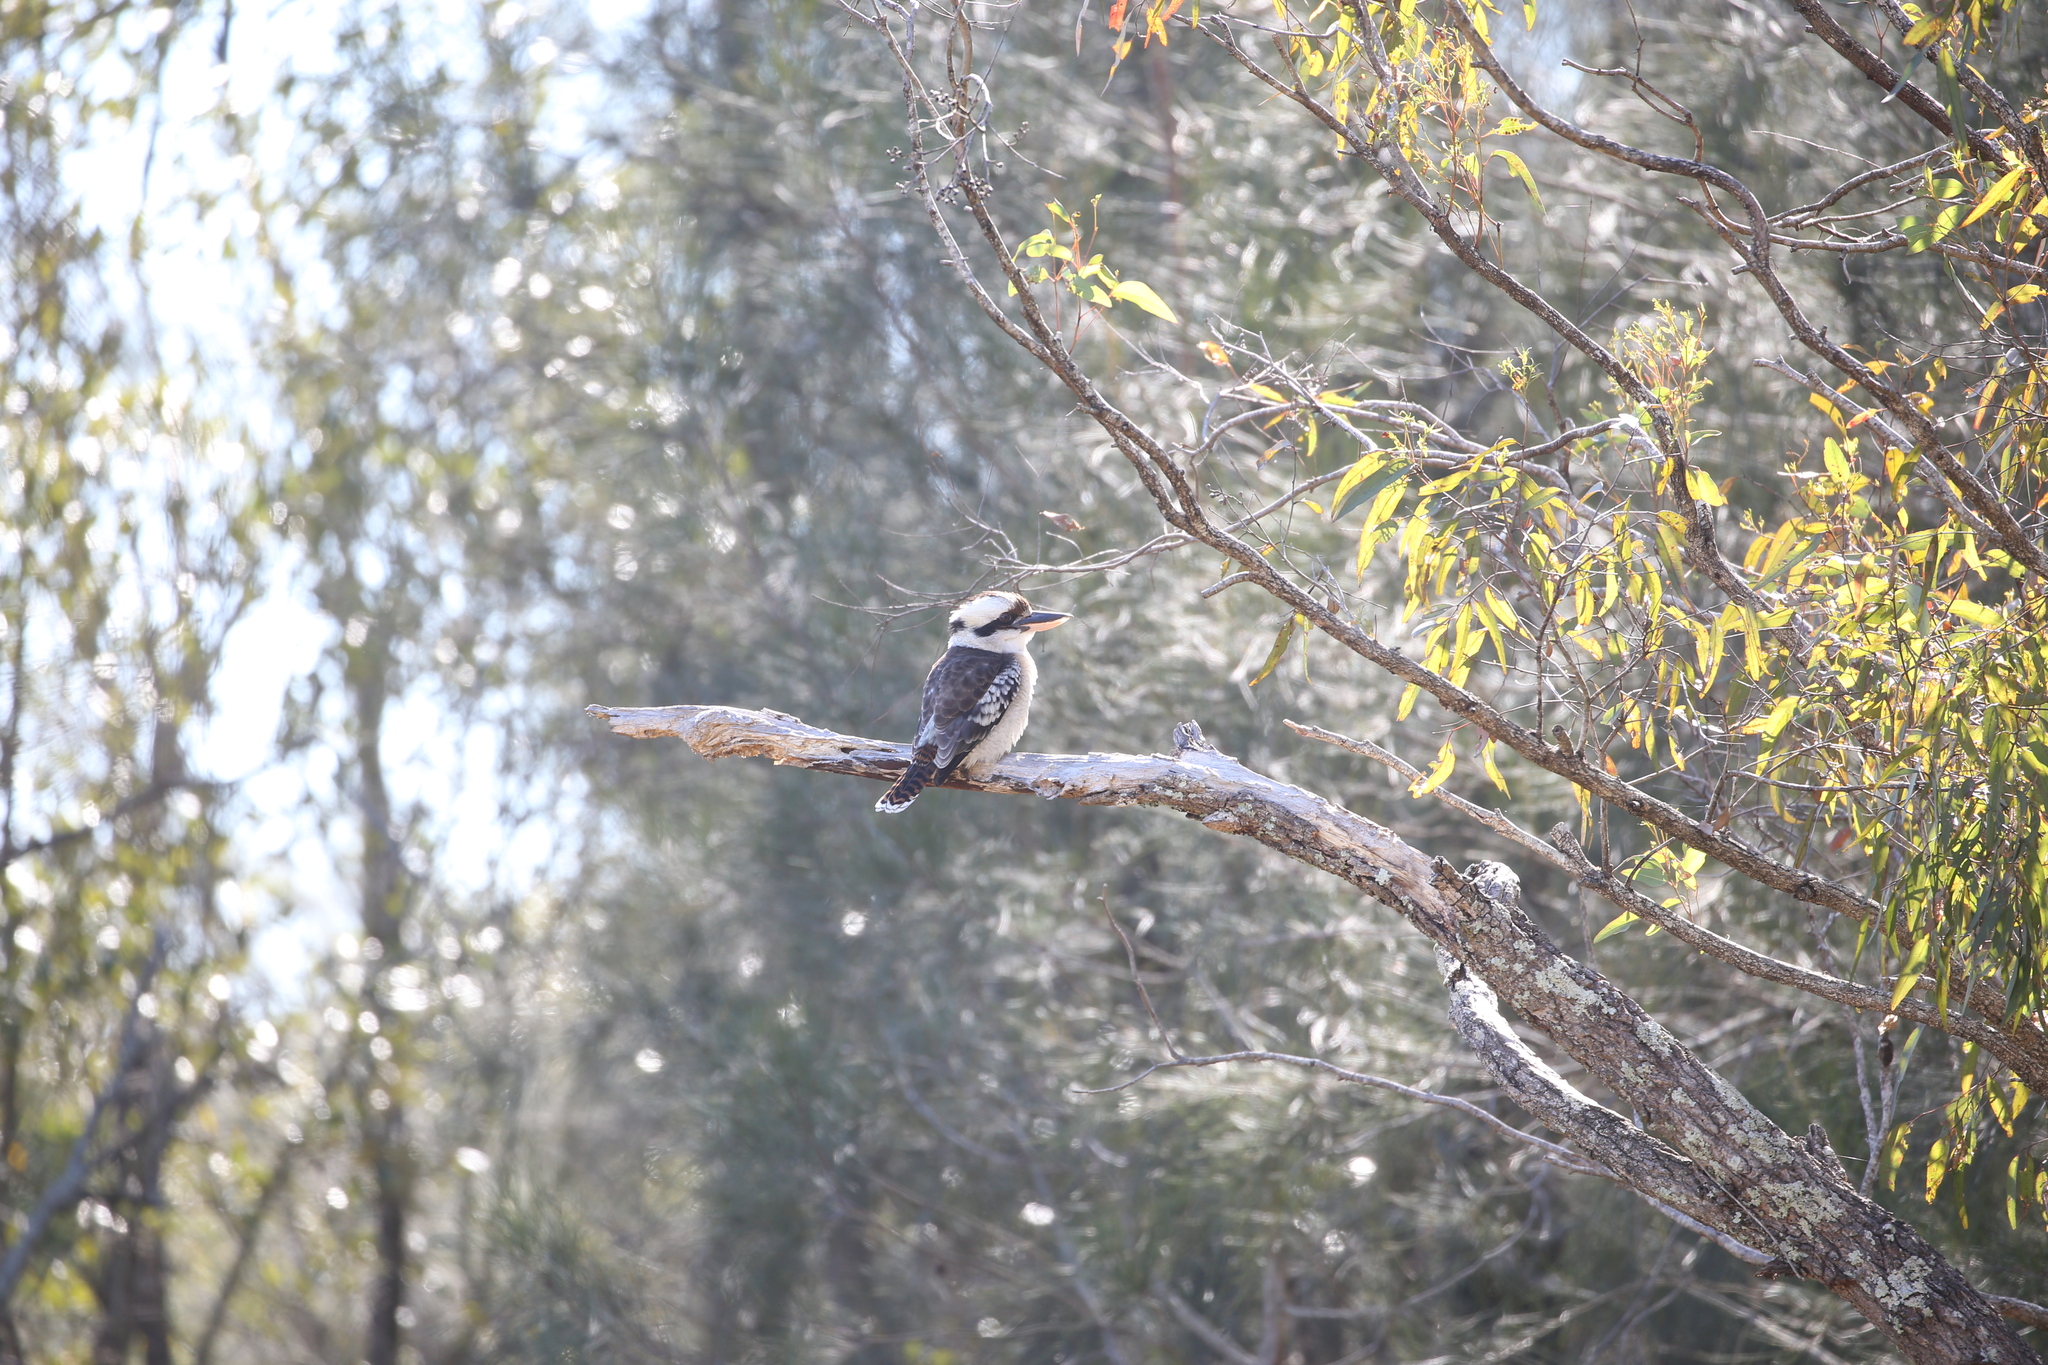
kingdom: Animalia
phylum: Chordata
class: Aves
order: Coraciiformes
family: Alcedinidae
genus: Dacelo
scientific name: Dacelo novaeguineae
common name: Laughing kookaburra
